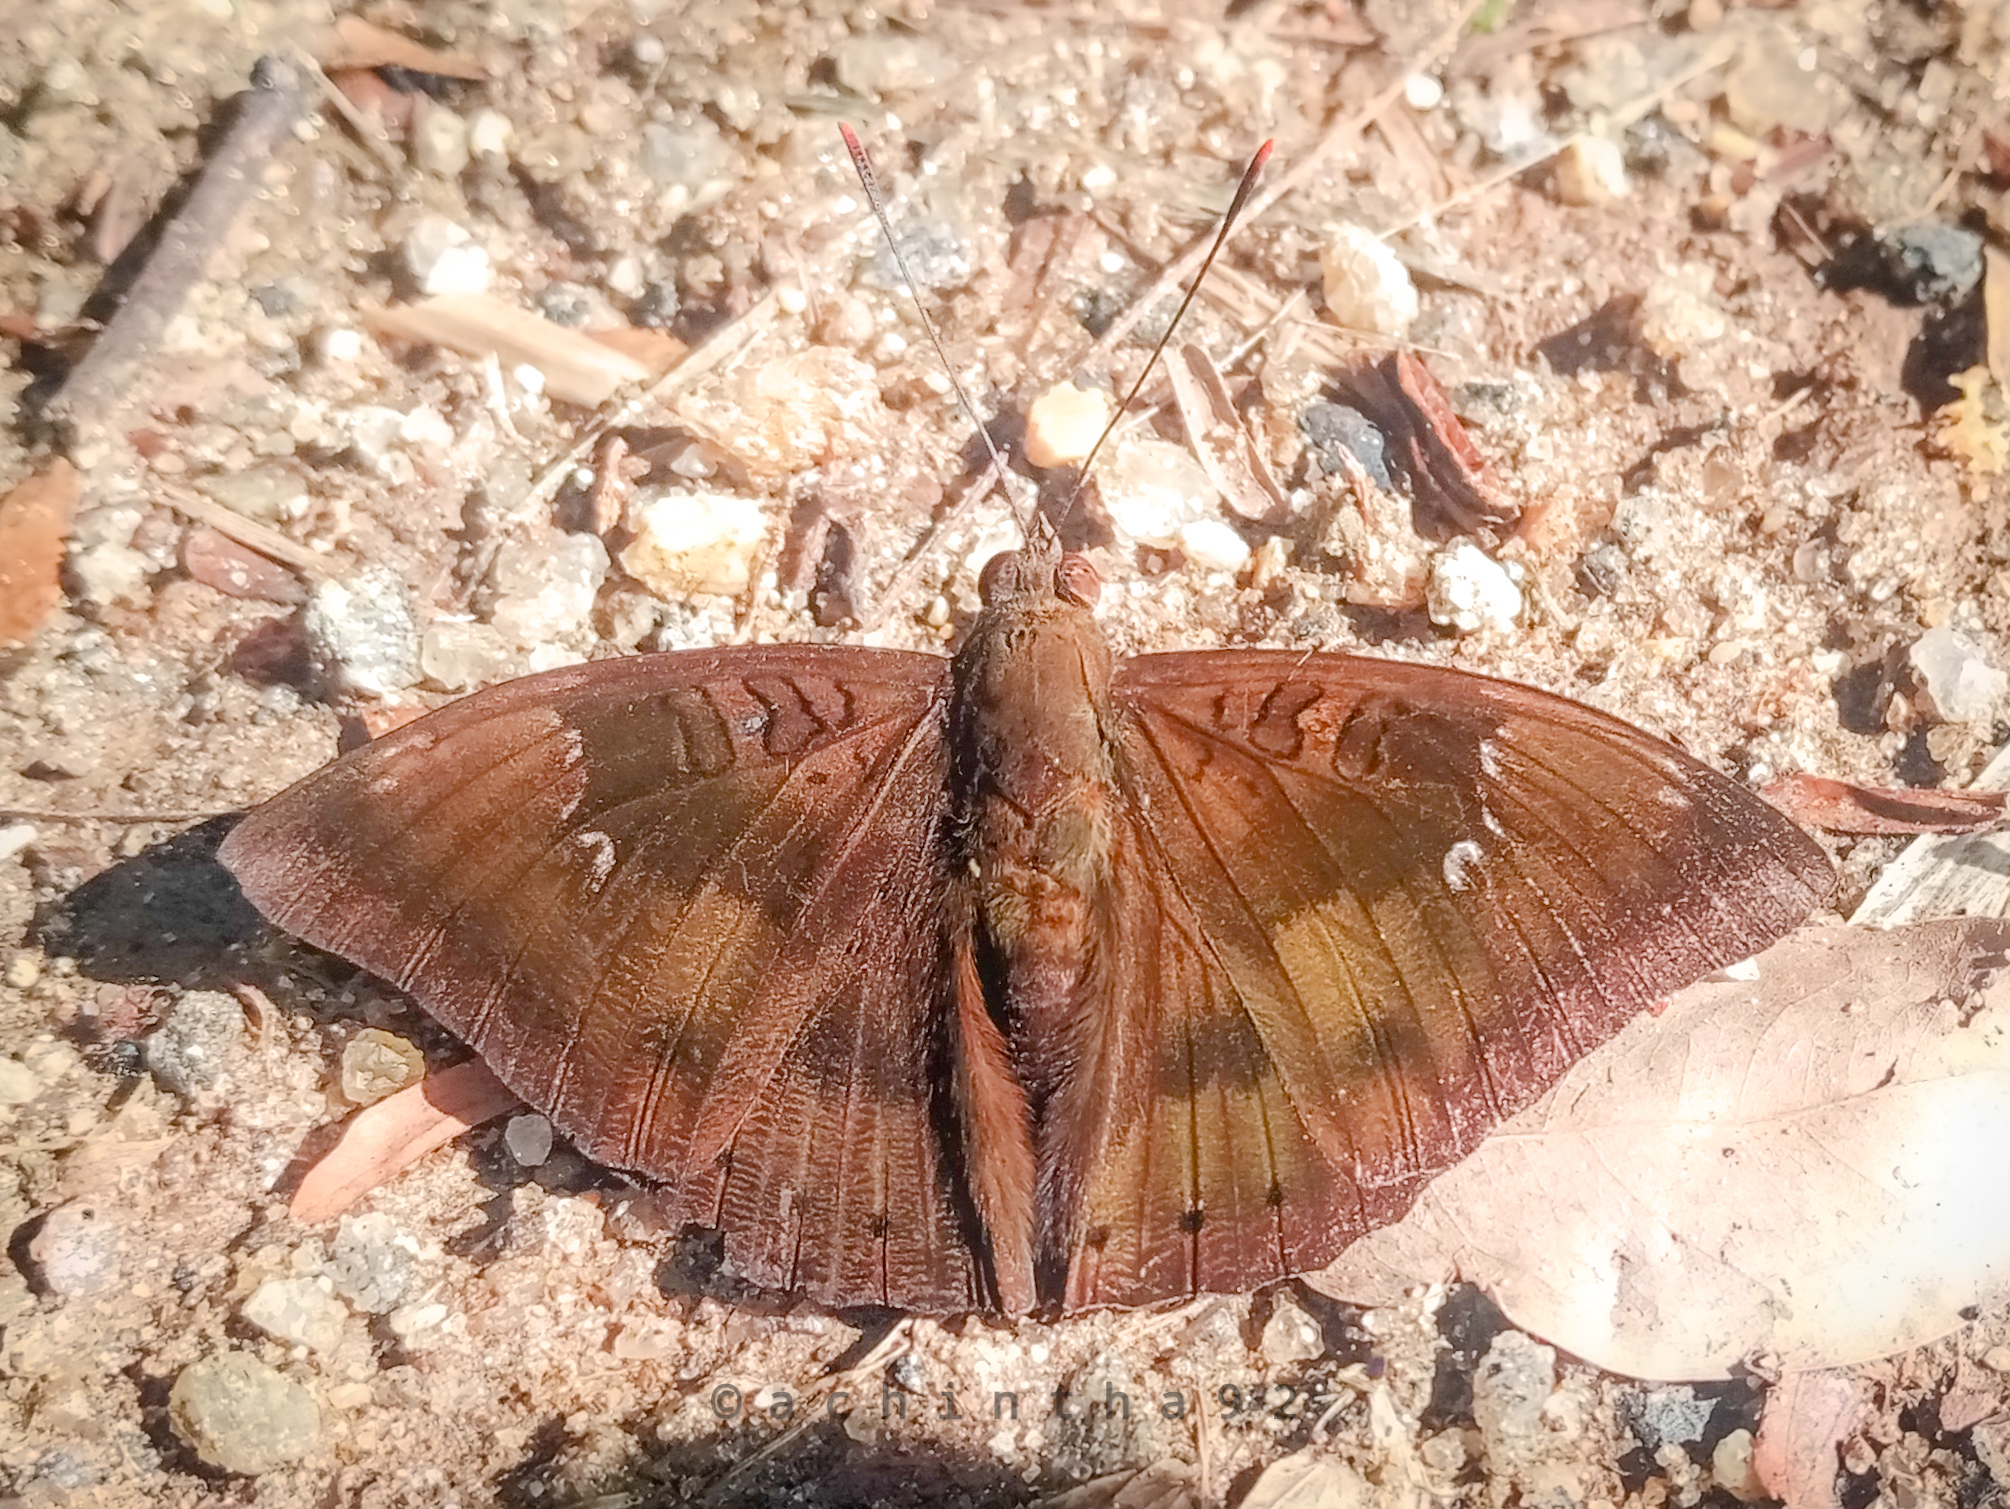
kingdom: Animalia
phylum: Arthropoda
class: Insecta
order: Lepidoptera
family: Nymphalidae
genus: Euthalia
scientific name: Euthalia aconthea
